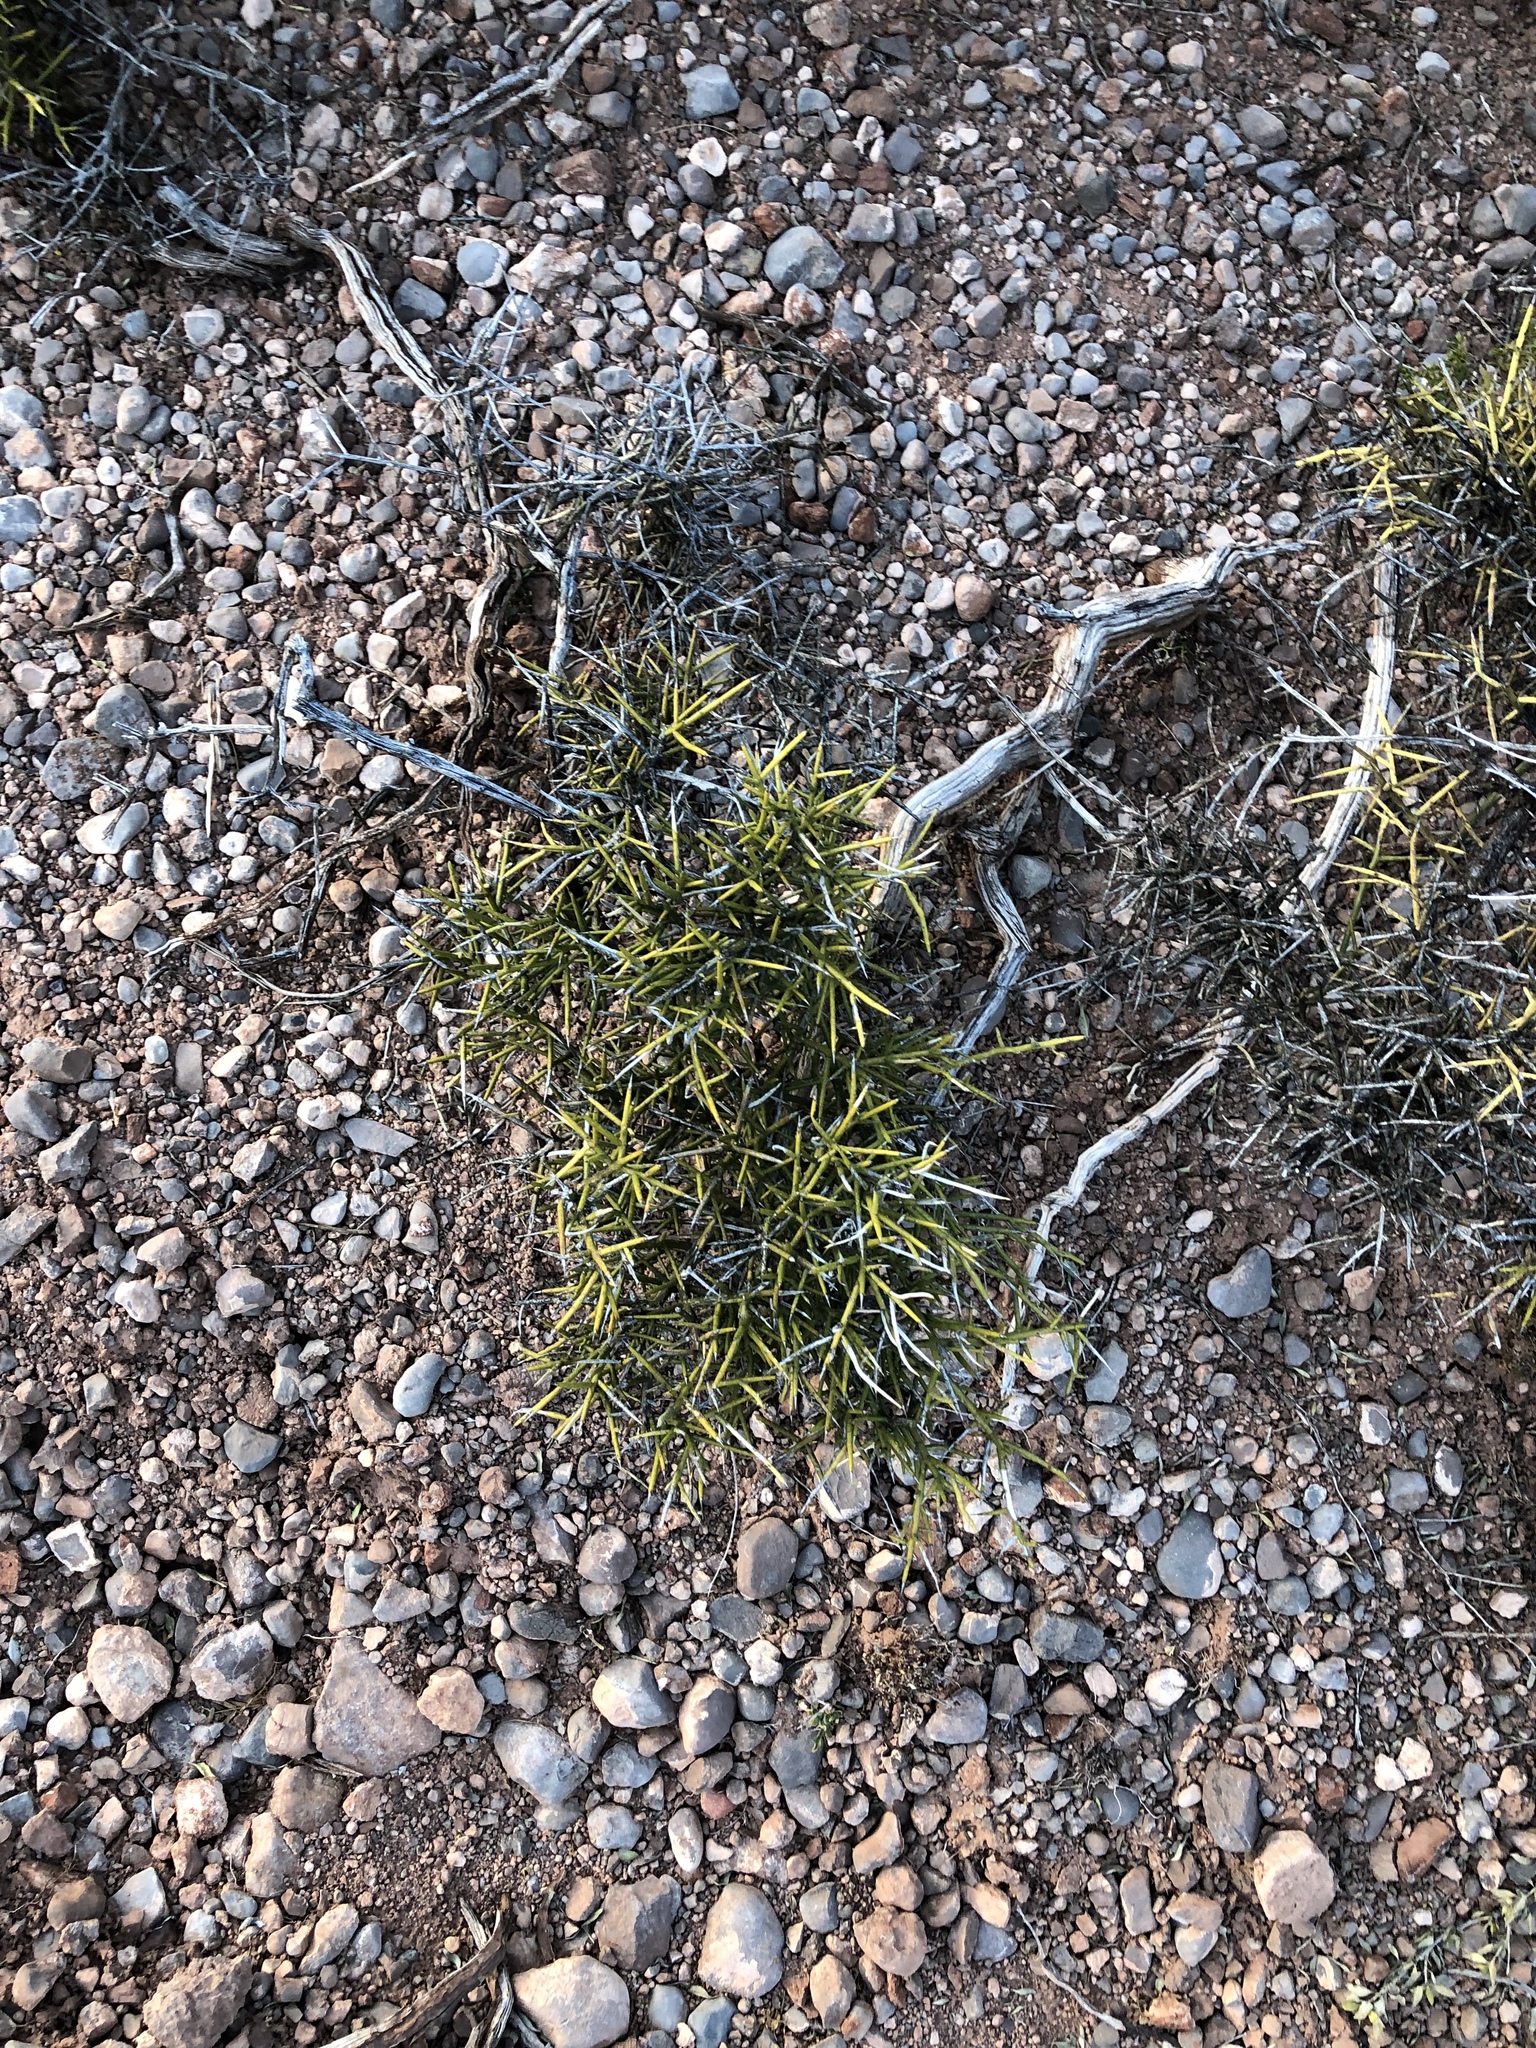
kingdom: Plantae
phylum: Tracheophyta
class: Magnoliopsida
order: Brassicales
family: Koeberliniaceae
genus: Koeberlinia
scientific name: Koeberlinia spinosa
